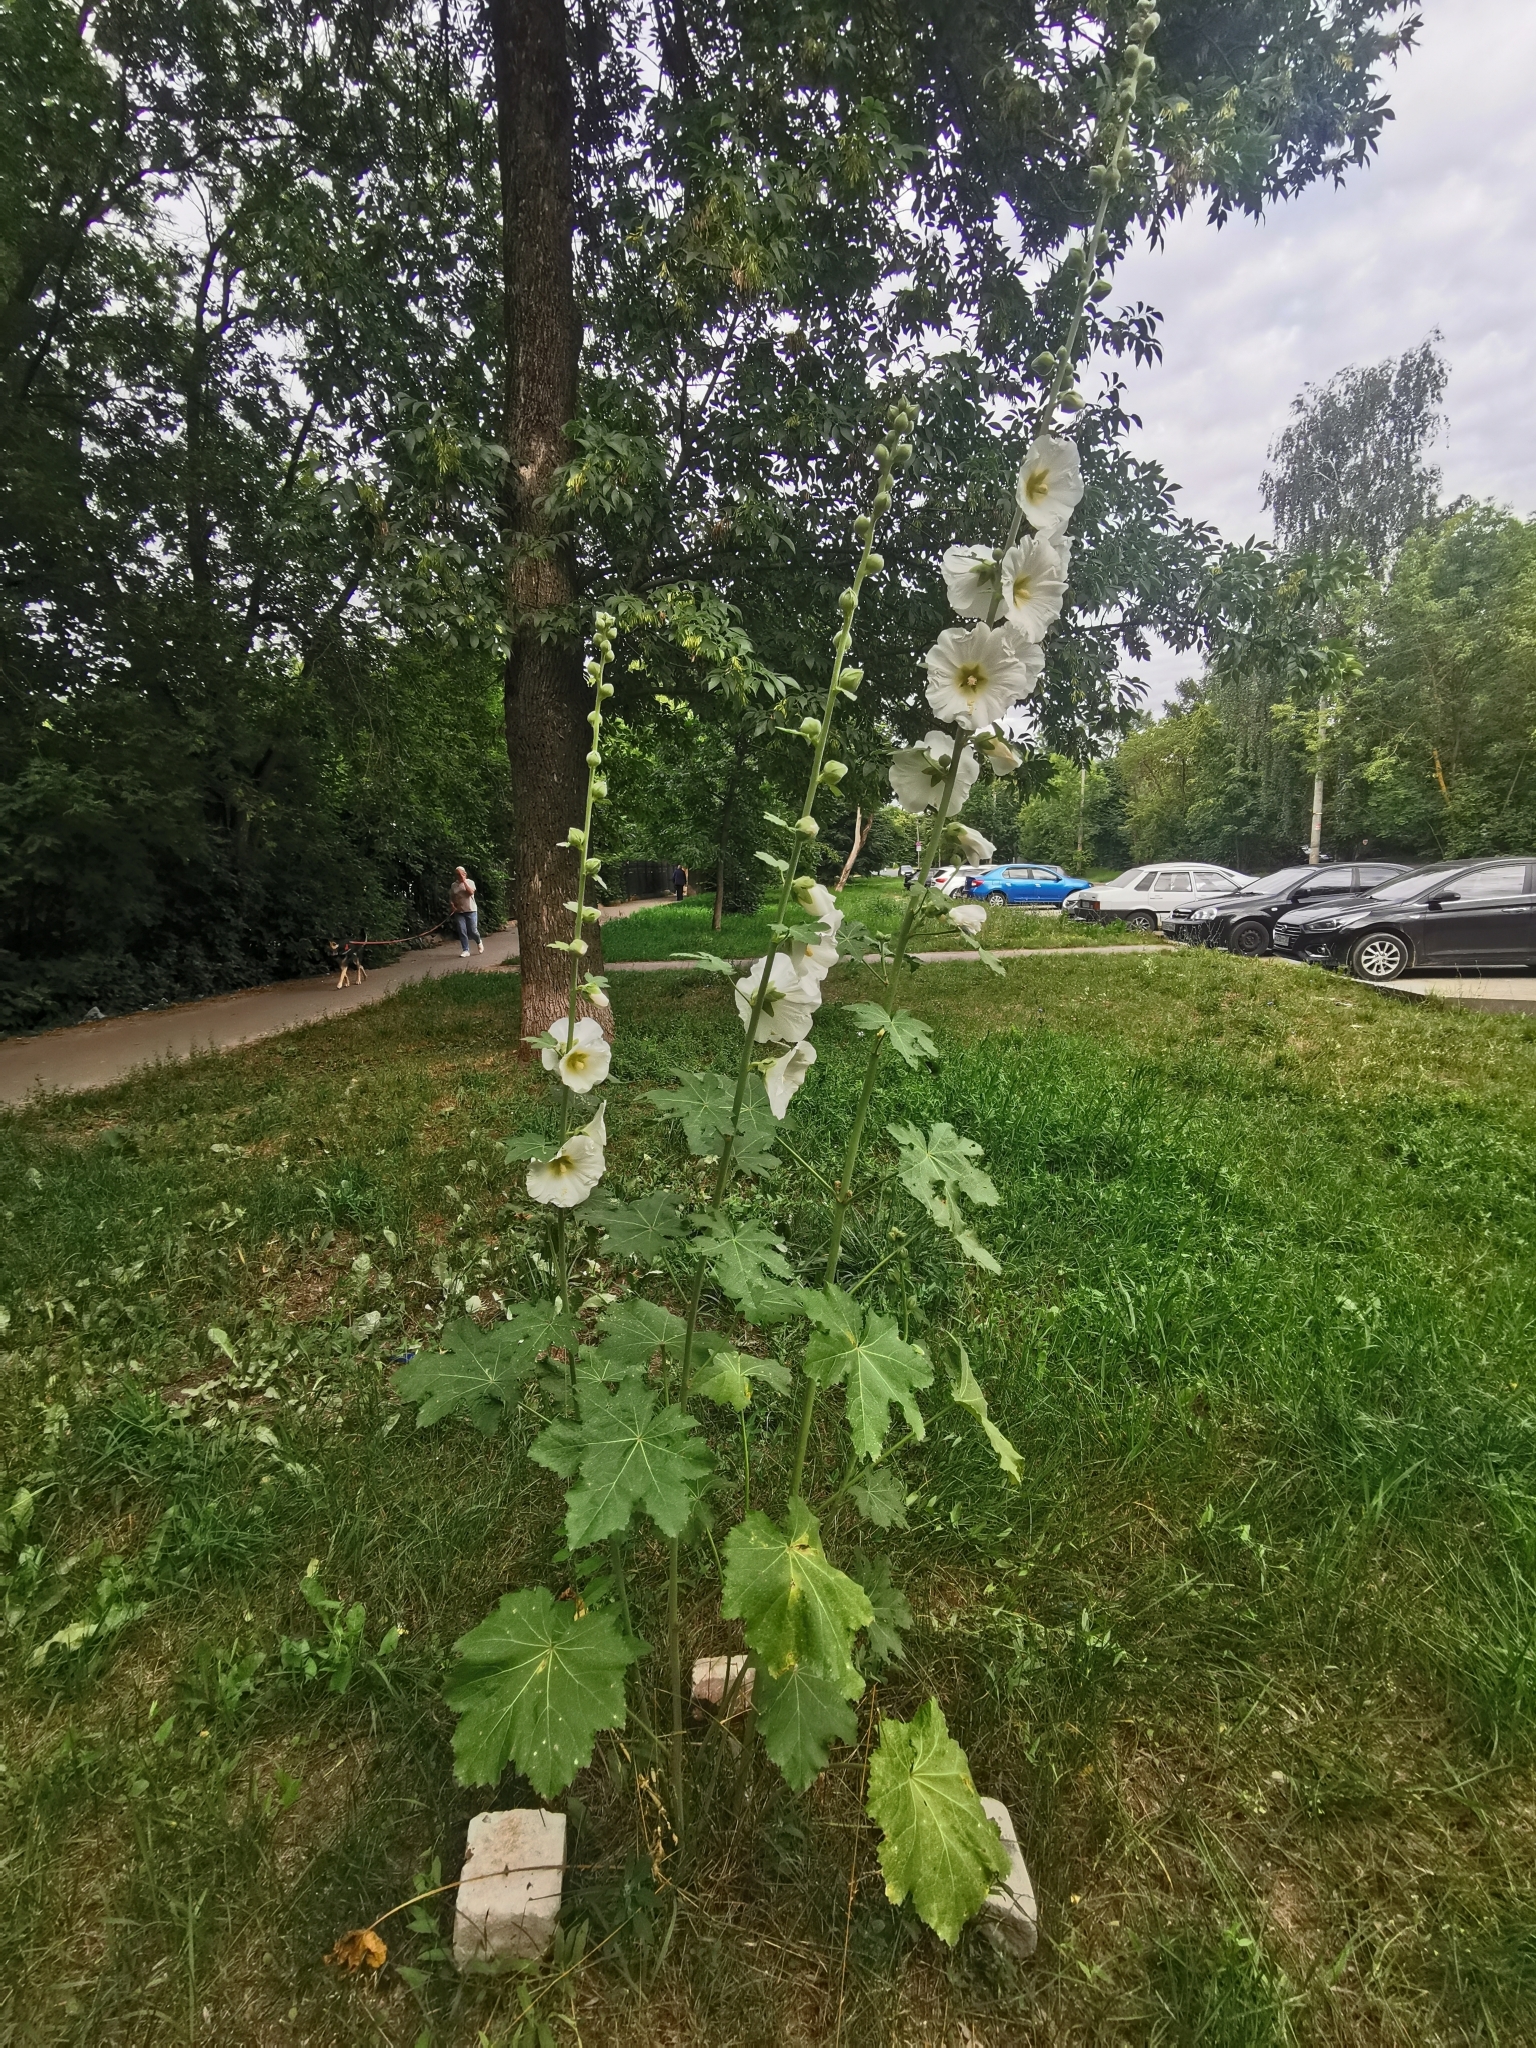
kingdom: Plantae
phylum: Tracheophyta
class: Magnoliopsida
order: Malvales
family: Malvaceae
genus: Alcea
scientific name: Alcea rosea
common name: Hollyhock
